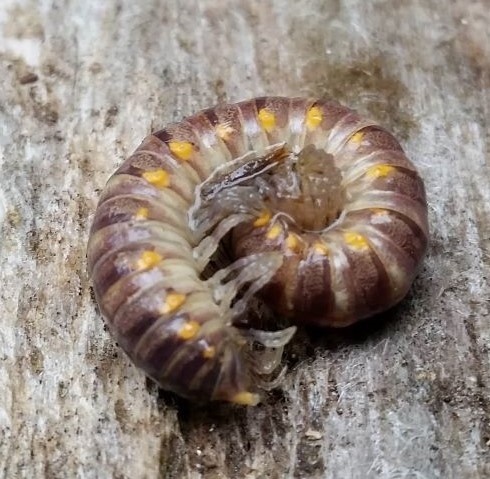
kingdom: Animalia
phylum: Arthropoda
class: Diplopoda
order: Polydesmida
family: Xystodesmidae
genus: Tubaphe
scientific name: Tubaphe levii
